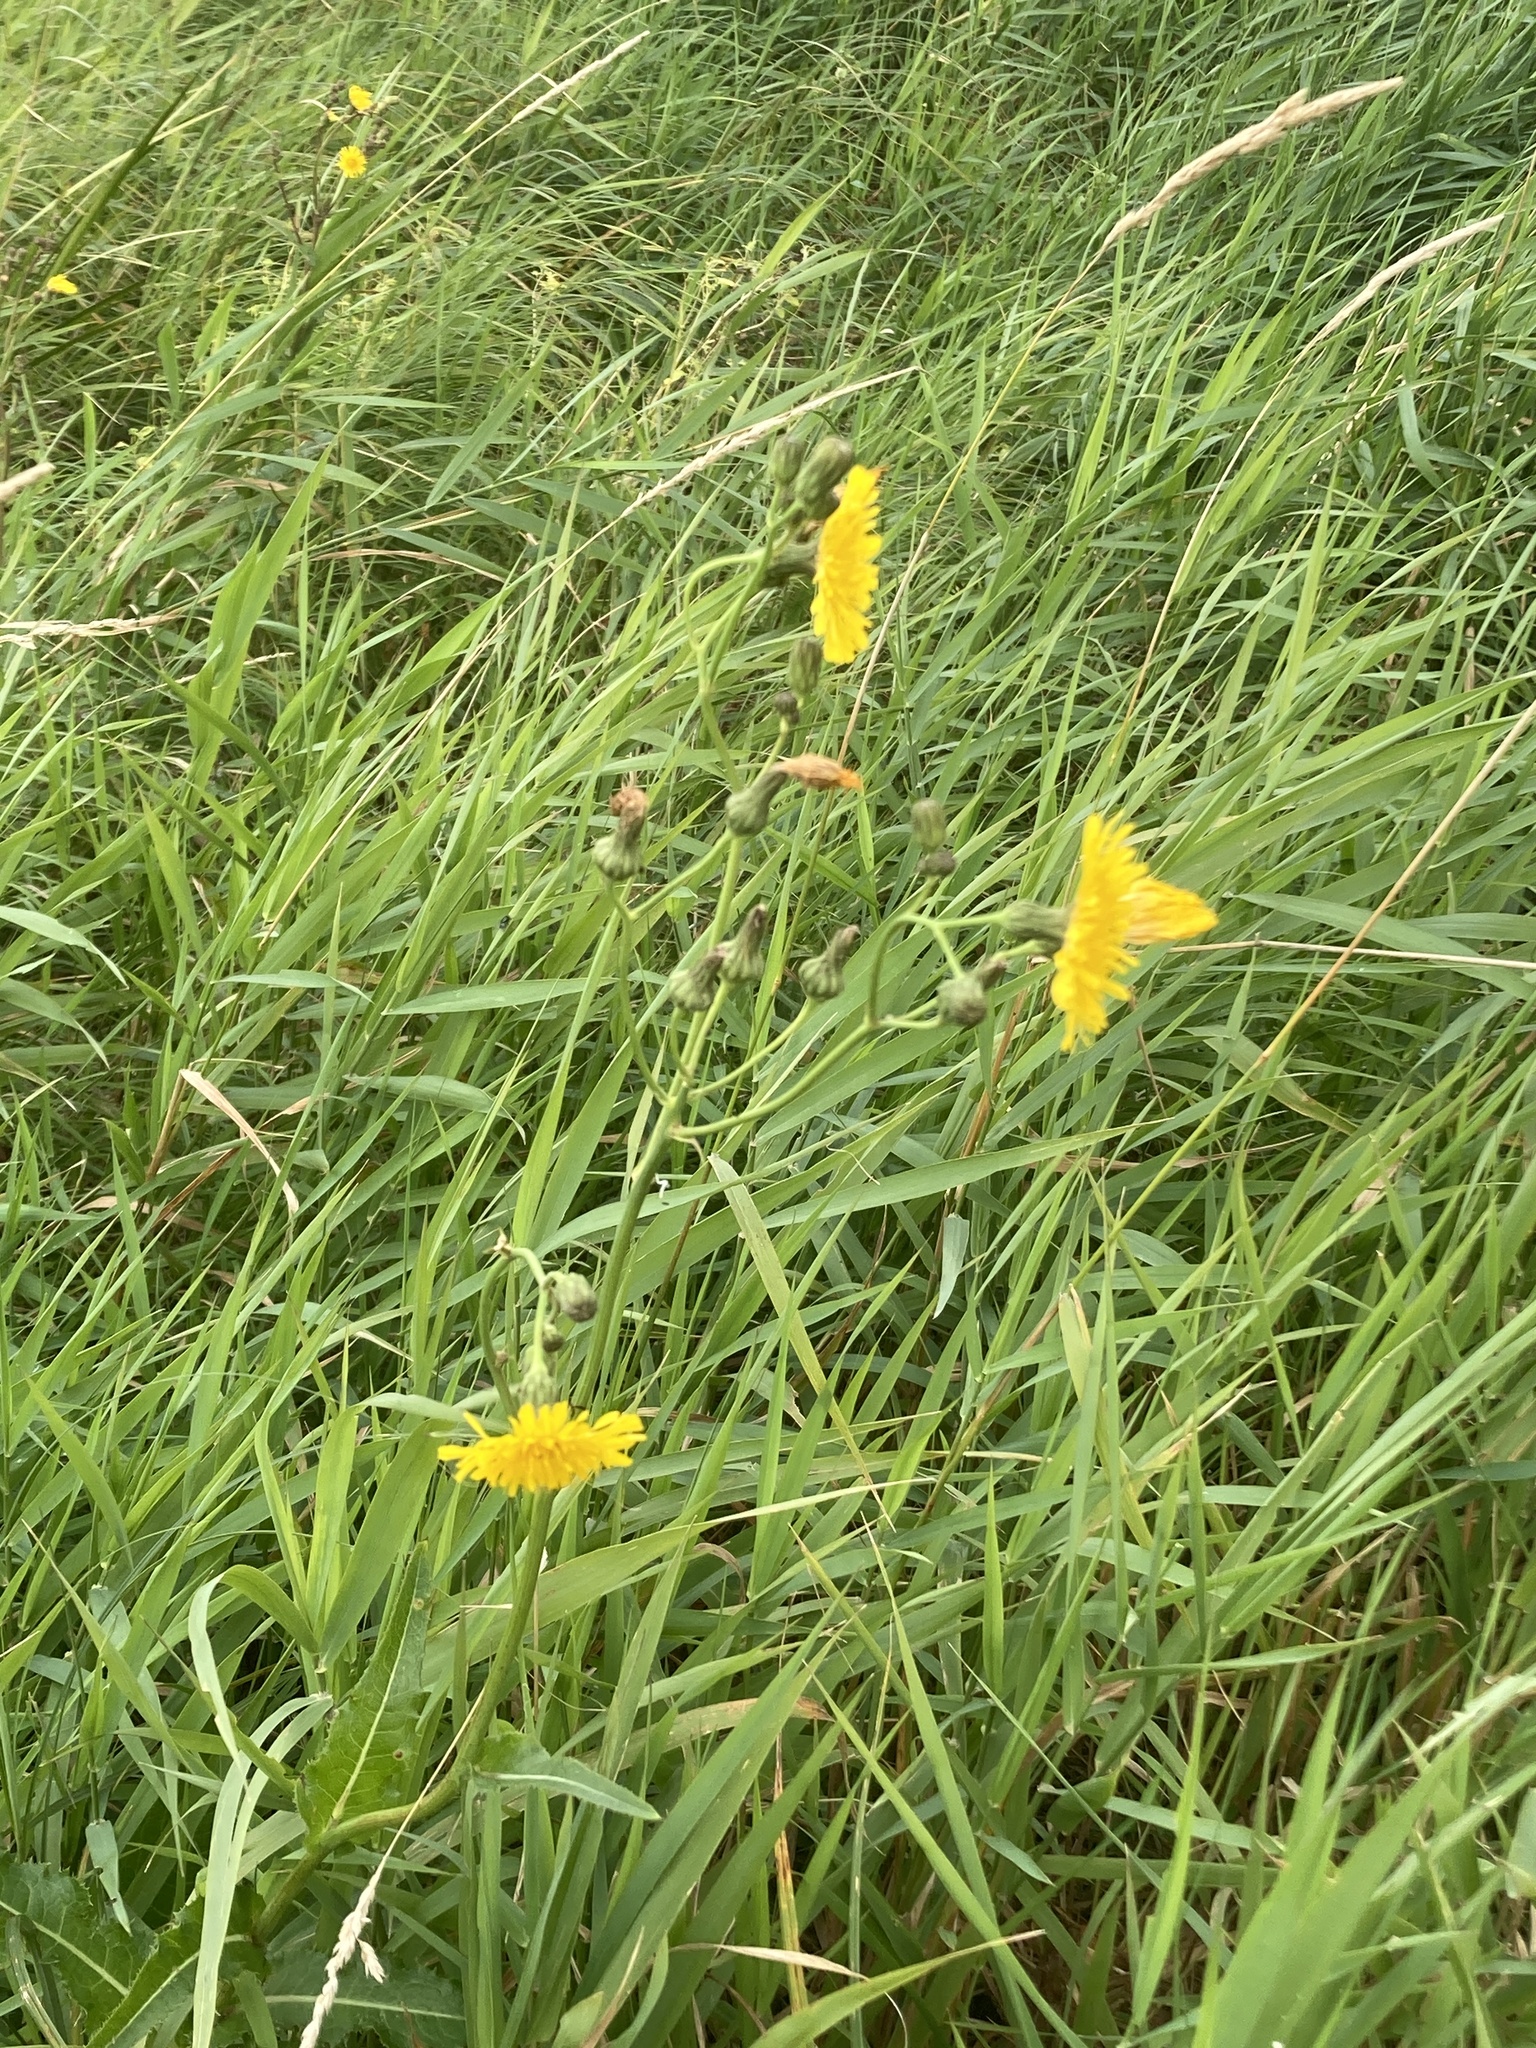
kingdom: Plantae
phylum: Tracheophyta
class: Magnoliopsida
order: Asterales
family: Asteraceae
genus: Sonchus
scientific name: Sonchus arvensis
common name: Perennial sow-thistle
